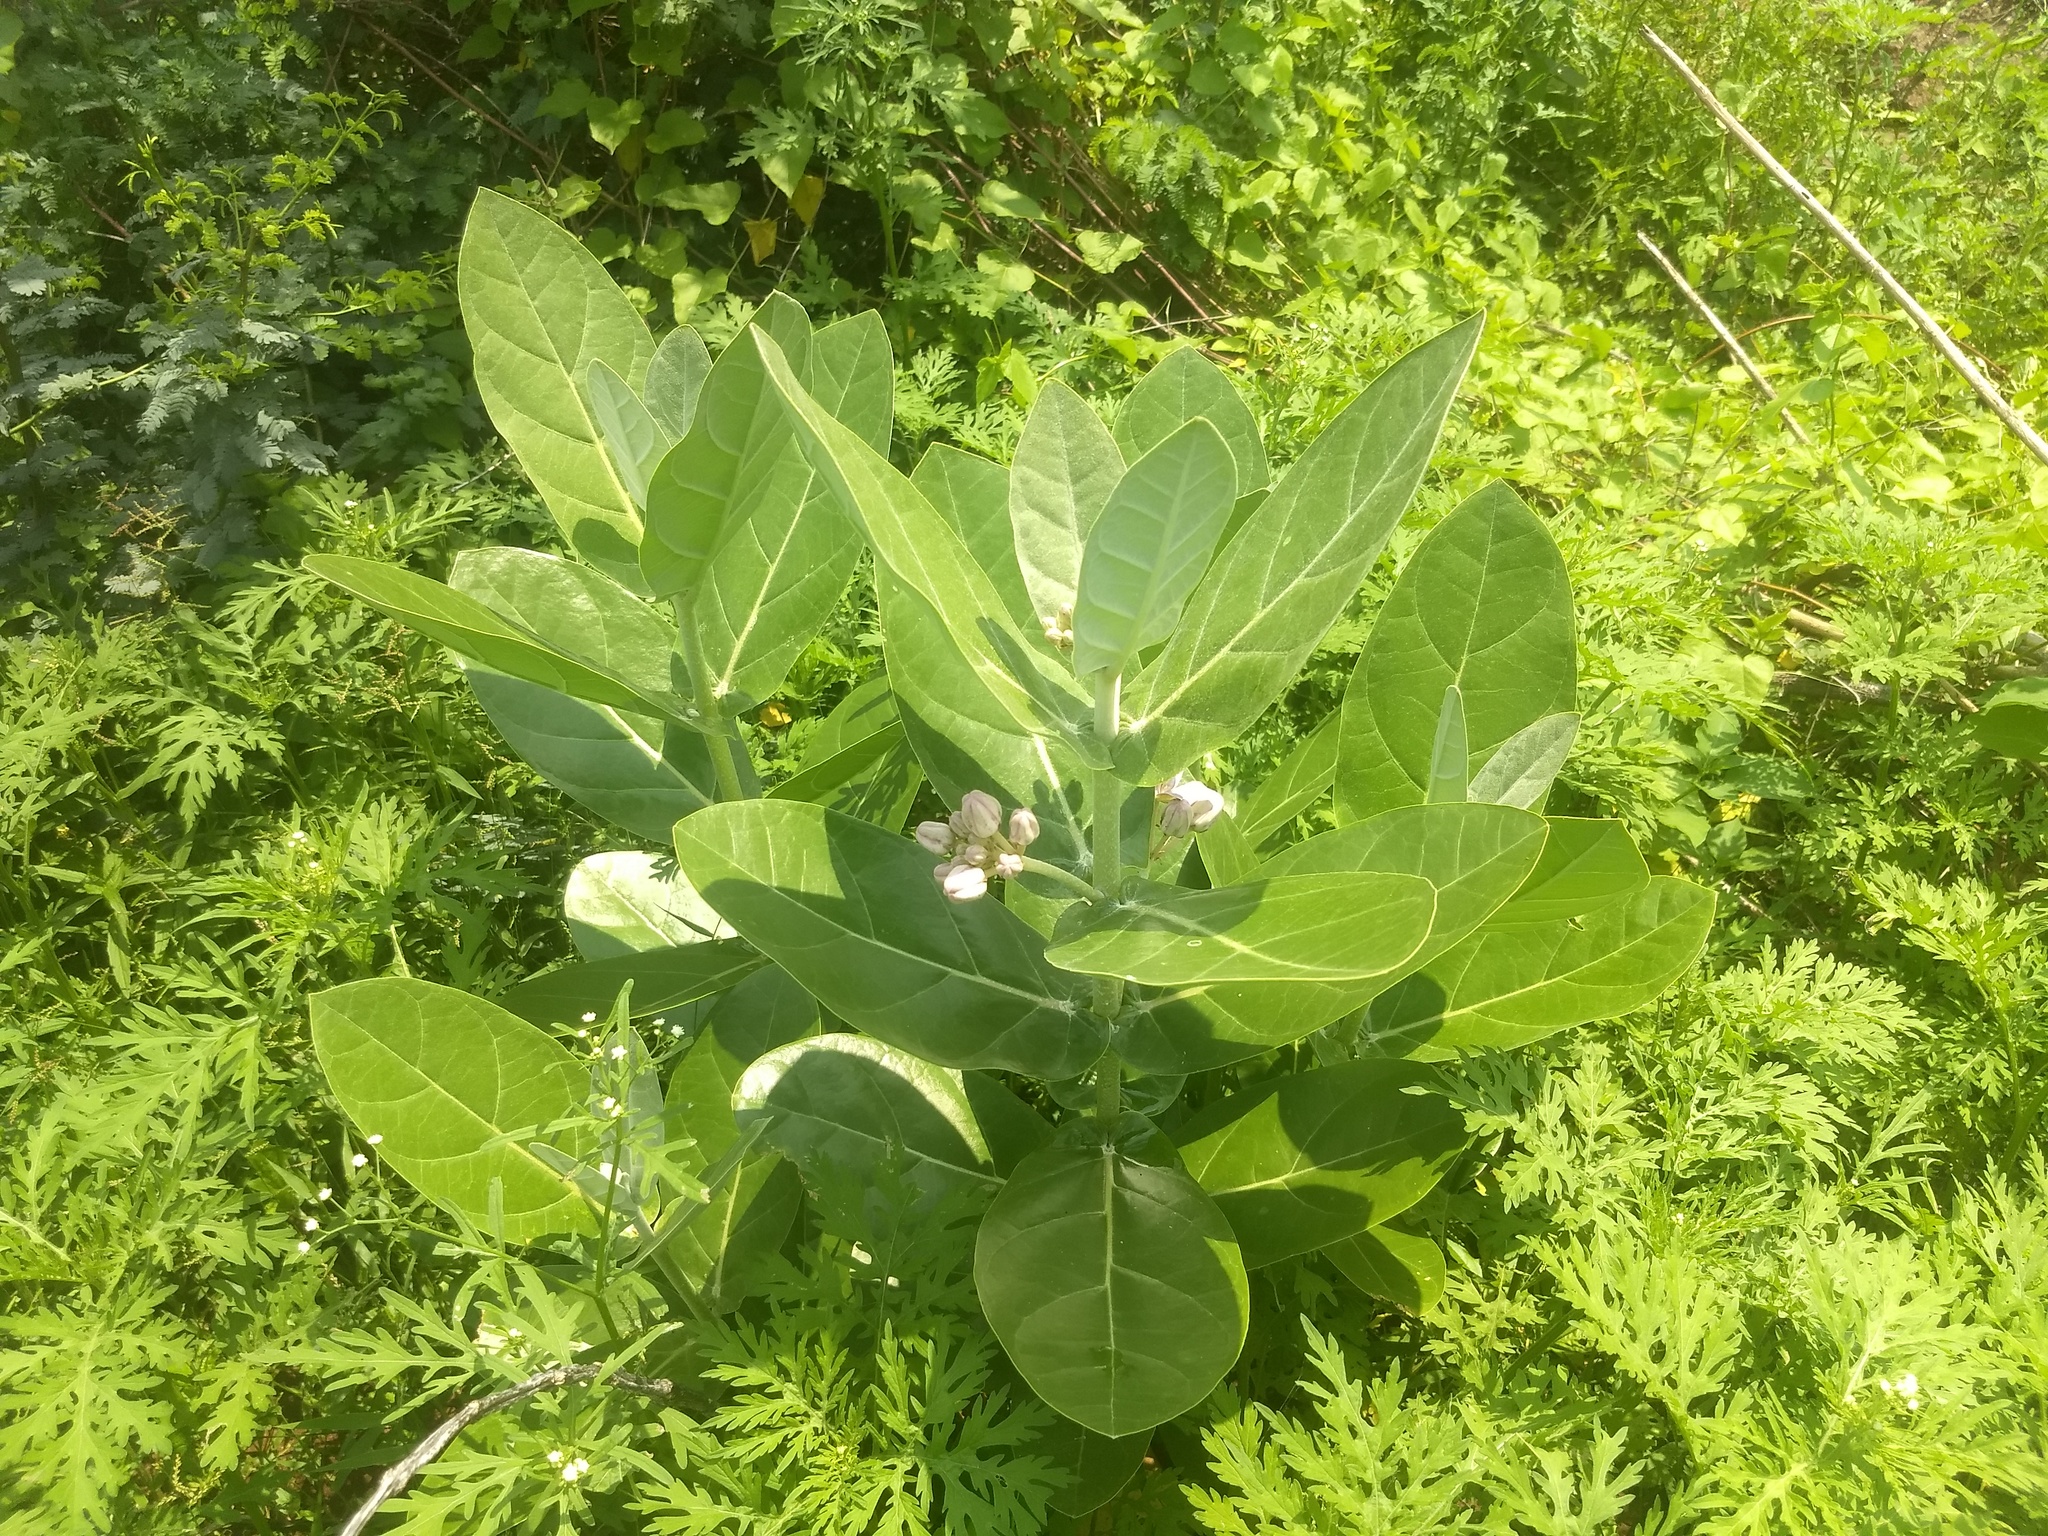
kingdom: Plantae
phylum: Tracheophyta
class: Magnoliopsida
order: Gentianales
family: Apocynaceae
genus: Calotropis
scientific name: Calotropis gigantea
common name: Crown flower
